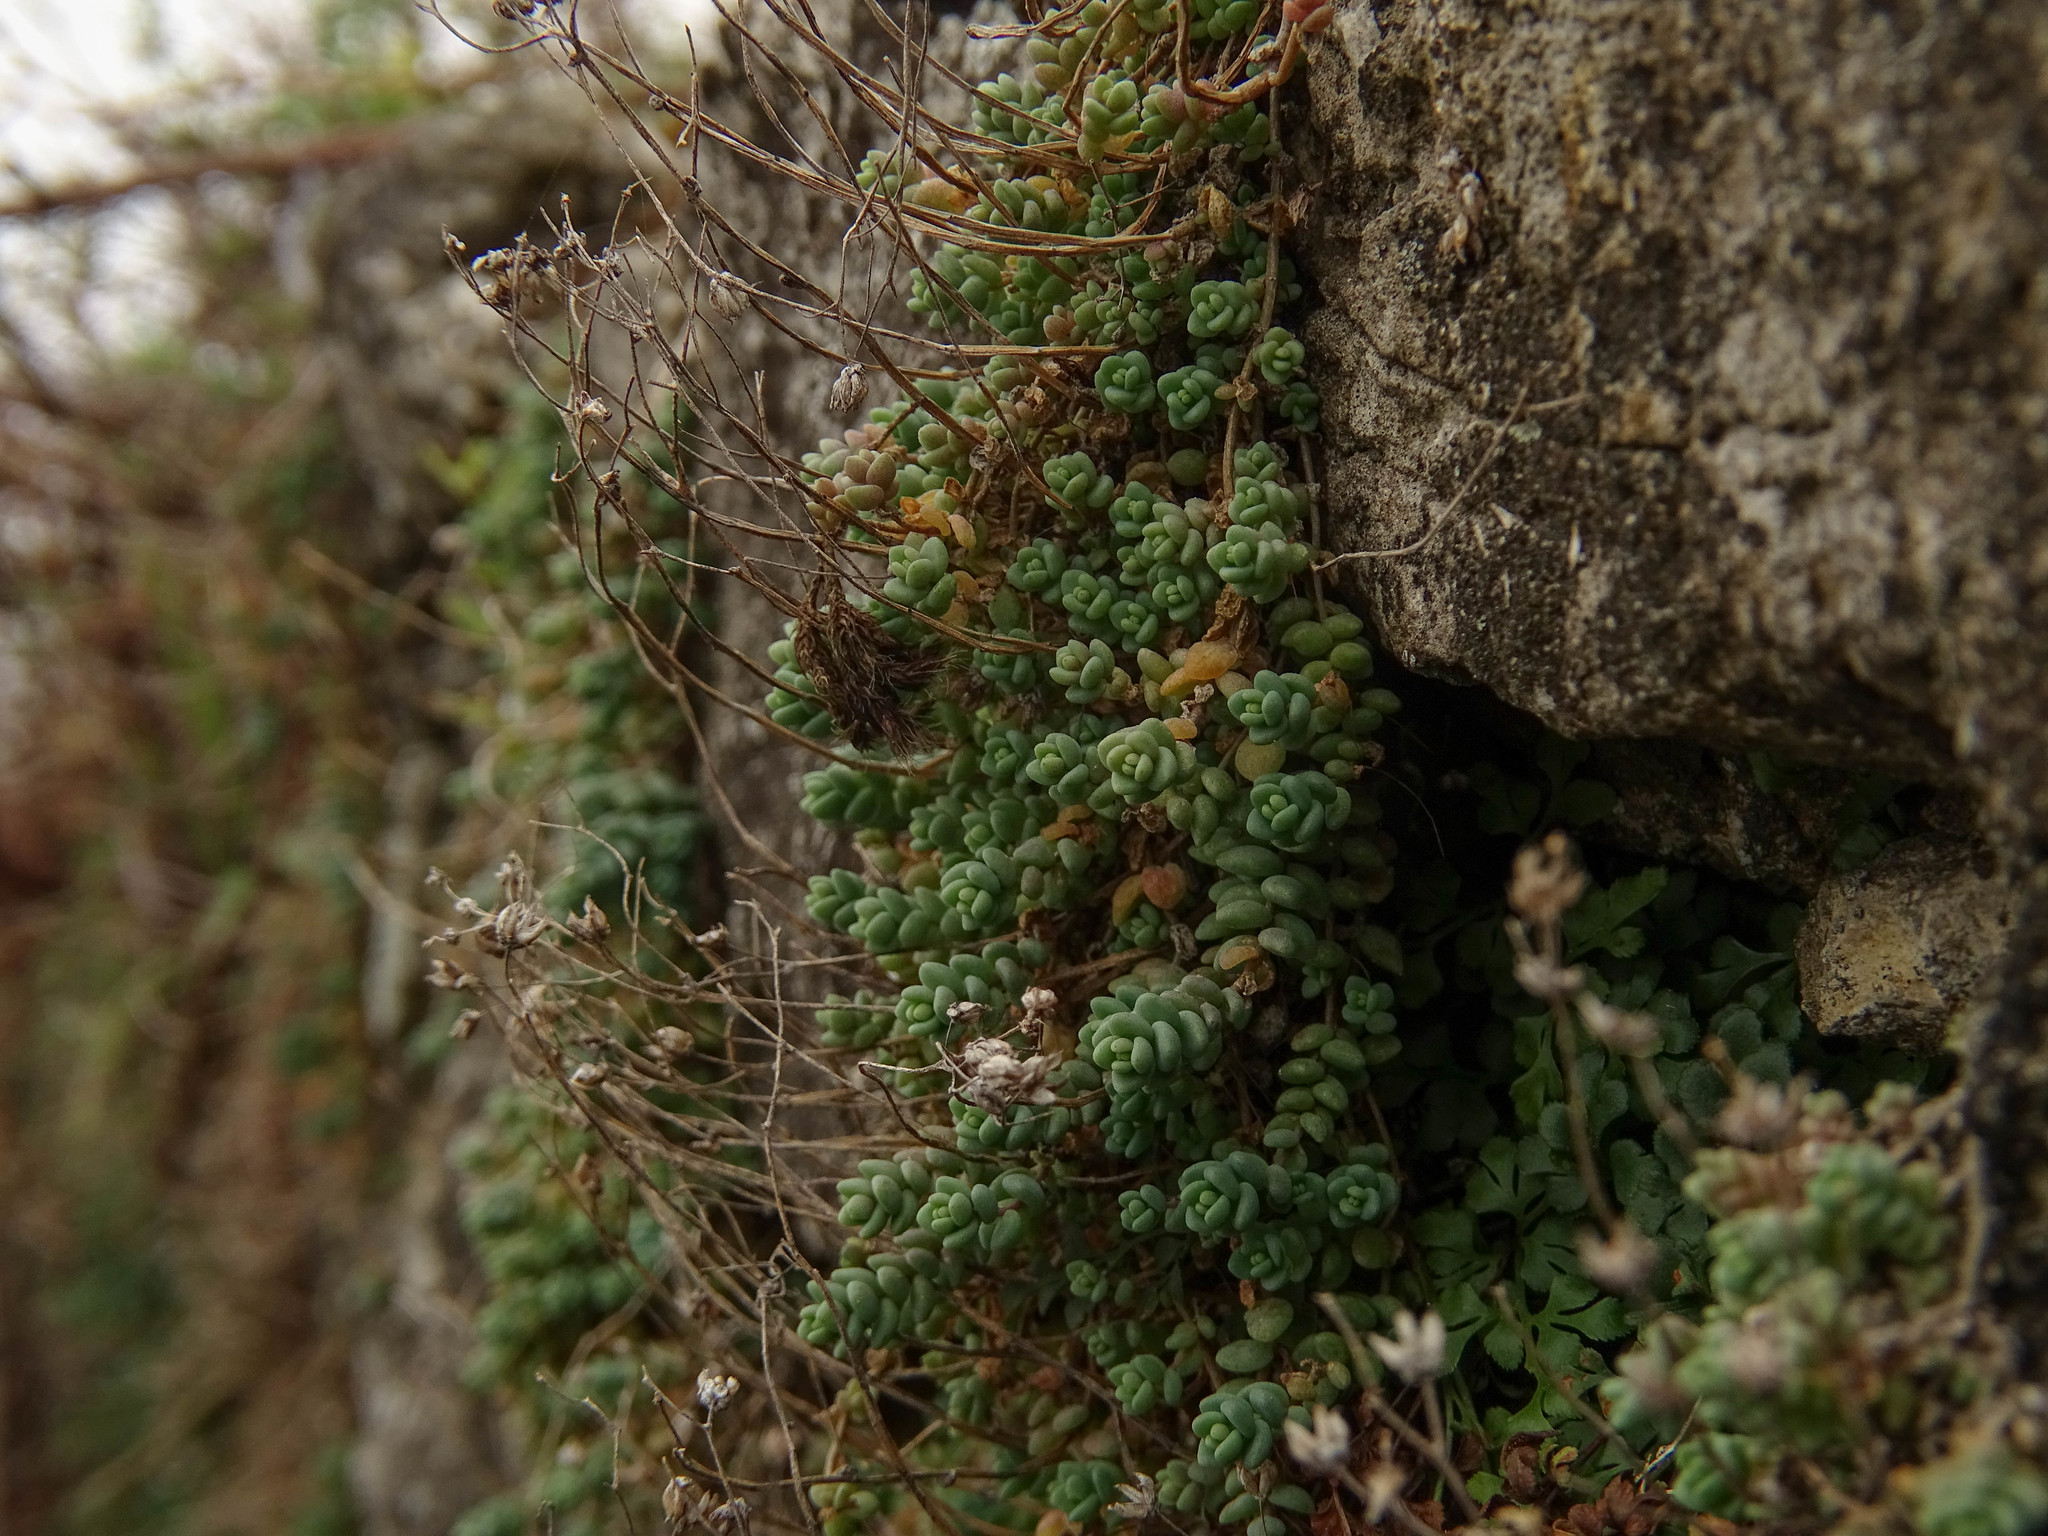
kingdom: Plantae
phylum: Tracheophyta
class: Magnoliopsida
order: Saxifragales
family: Crassulaceae
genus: Sedum
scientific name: Sedum dasyphyllum
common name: Thick-leaf stonecrop
